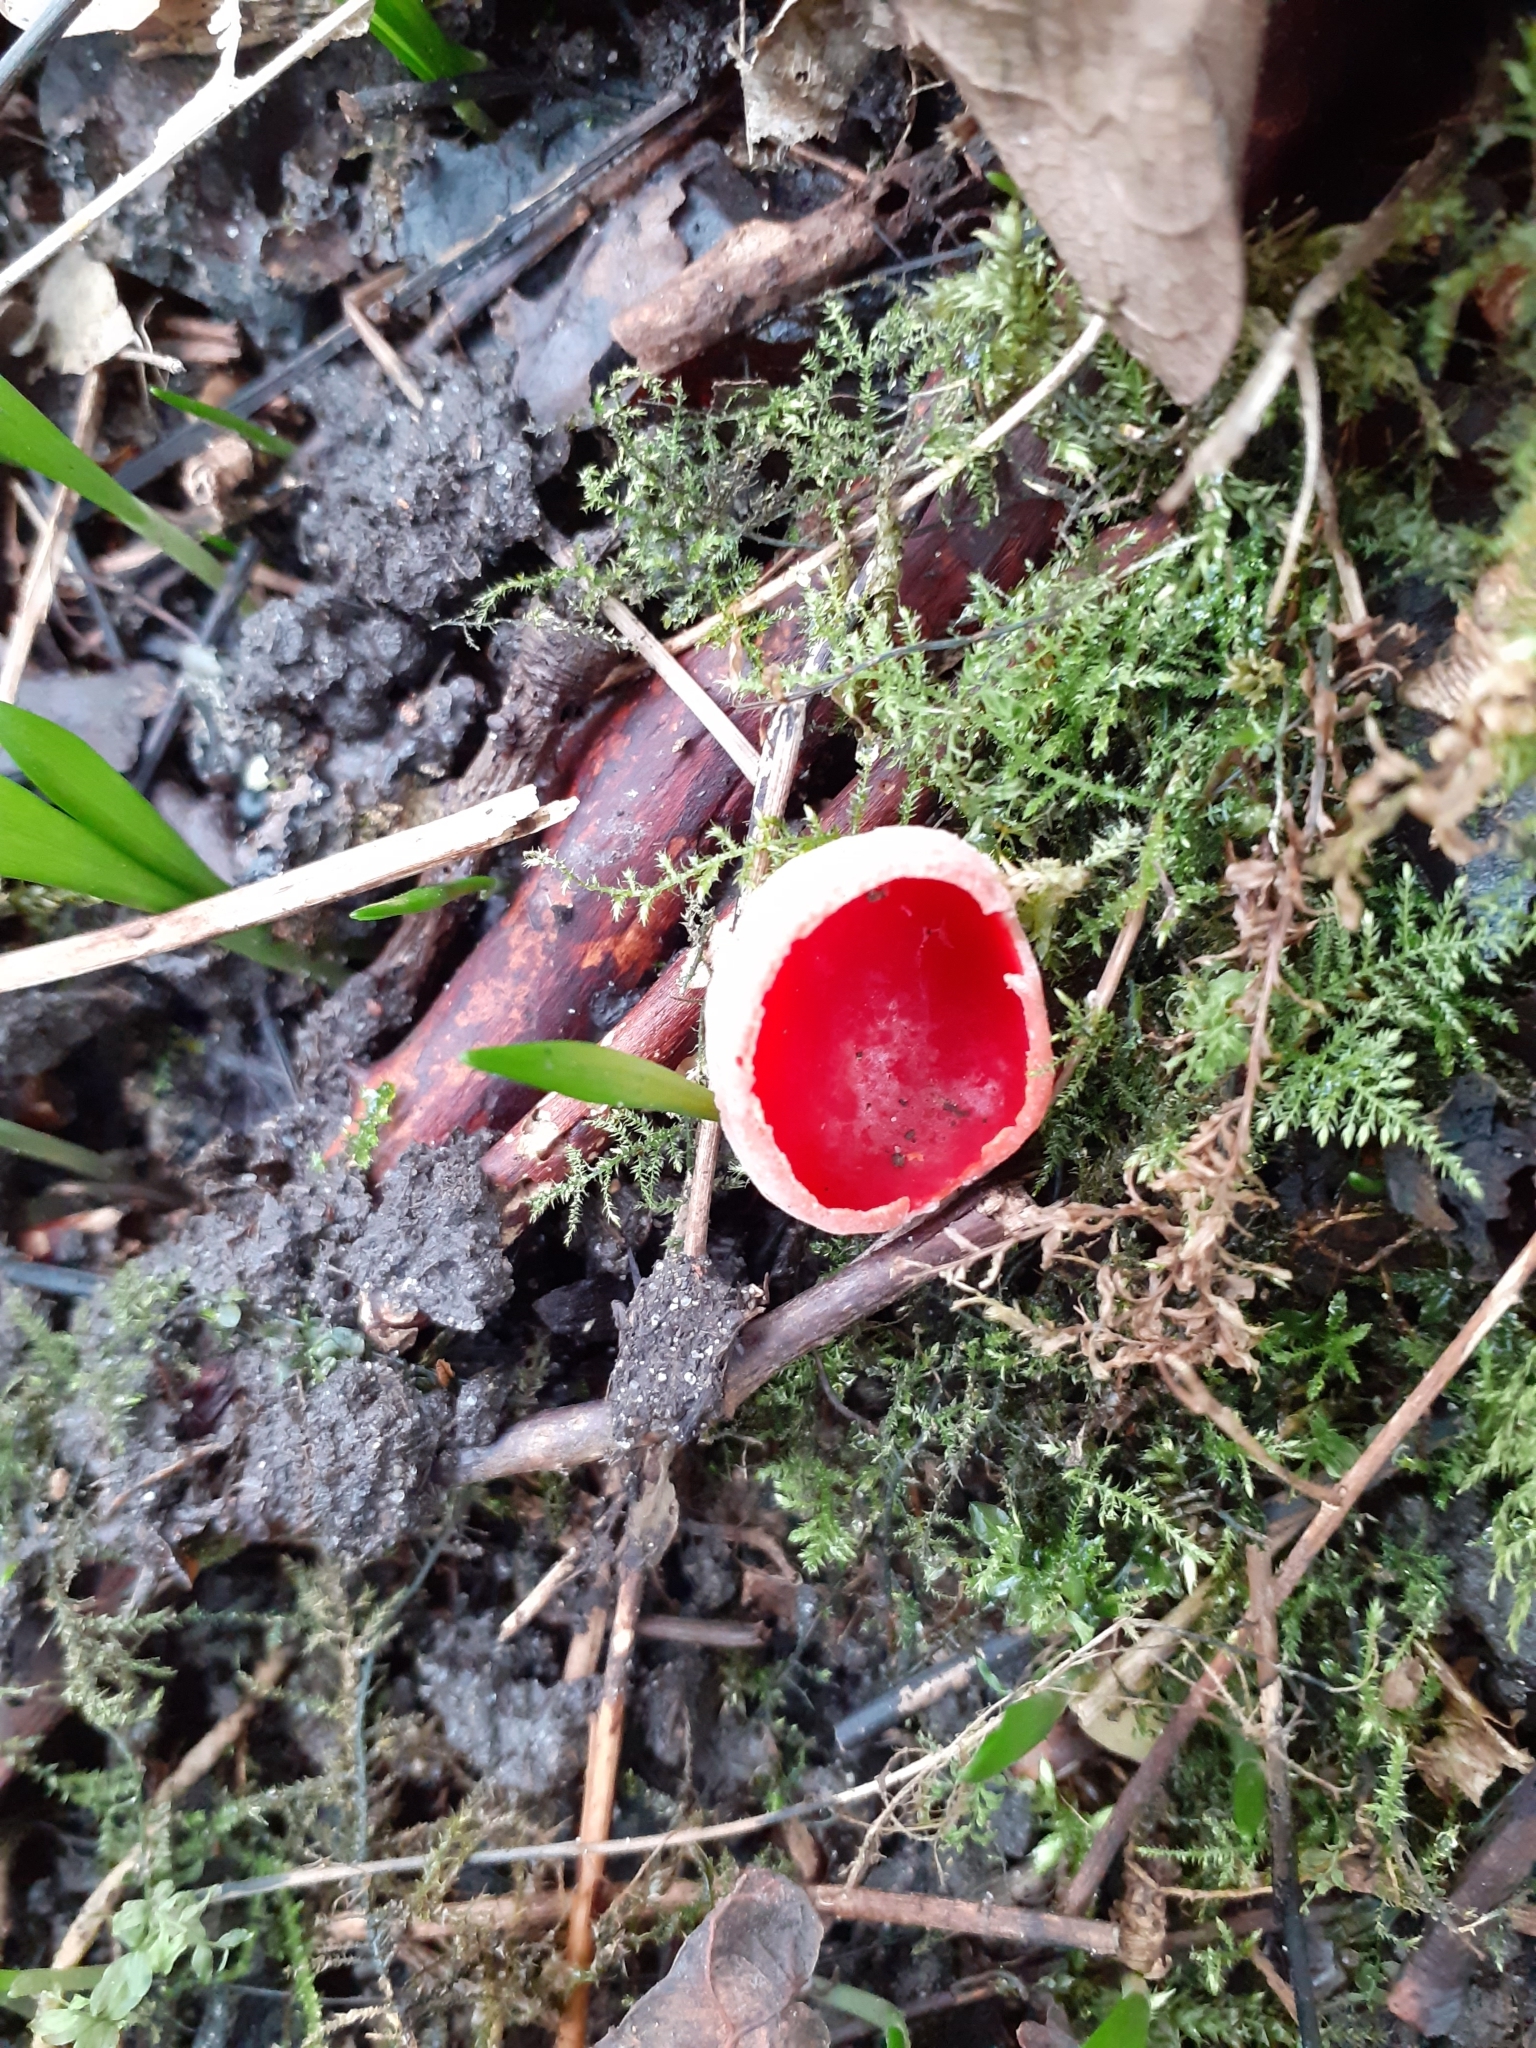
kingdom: Fungi
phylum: Ascomycota
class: Pezizomycetes
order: Pezizales
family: Sarcoscyphaceae
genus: Sarcoscypha
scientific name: Sarcoscypha
